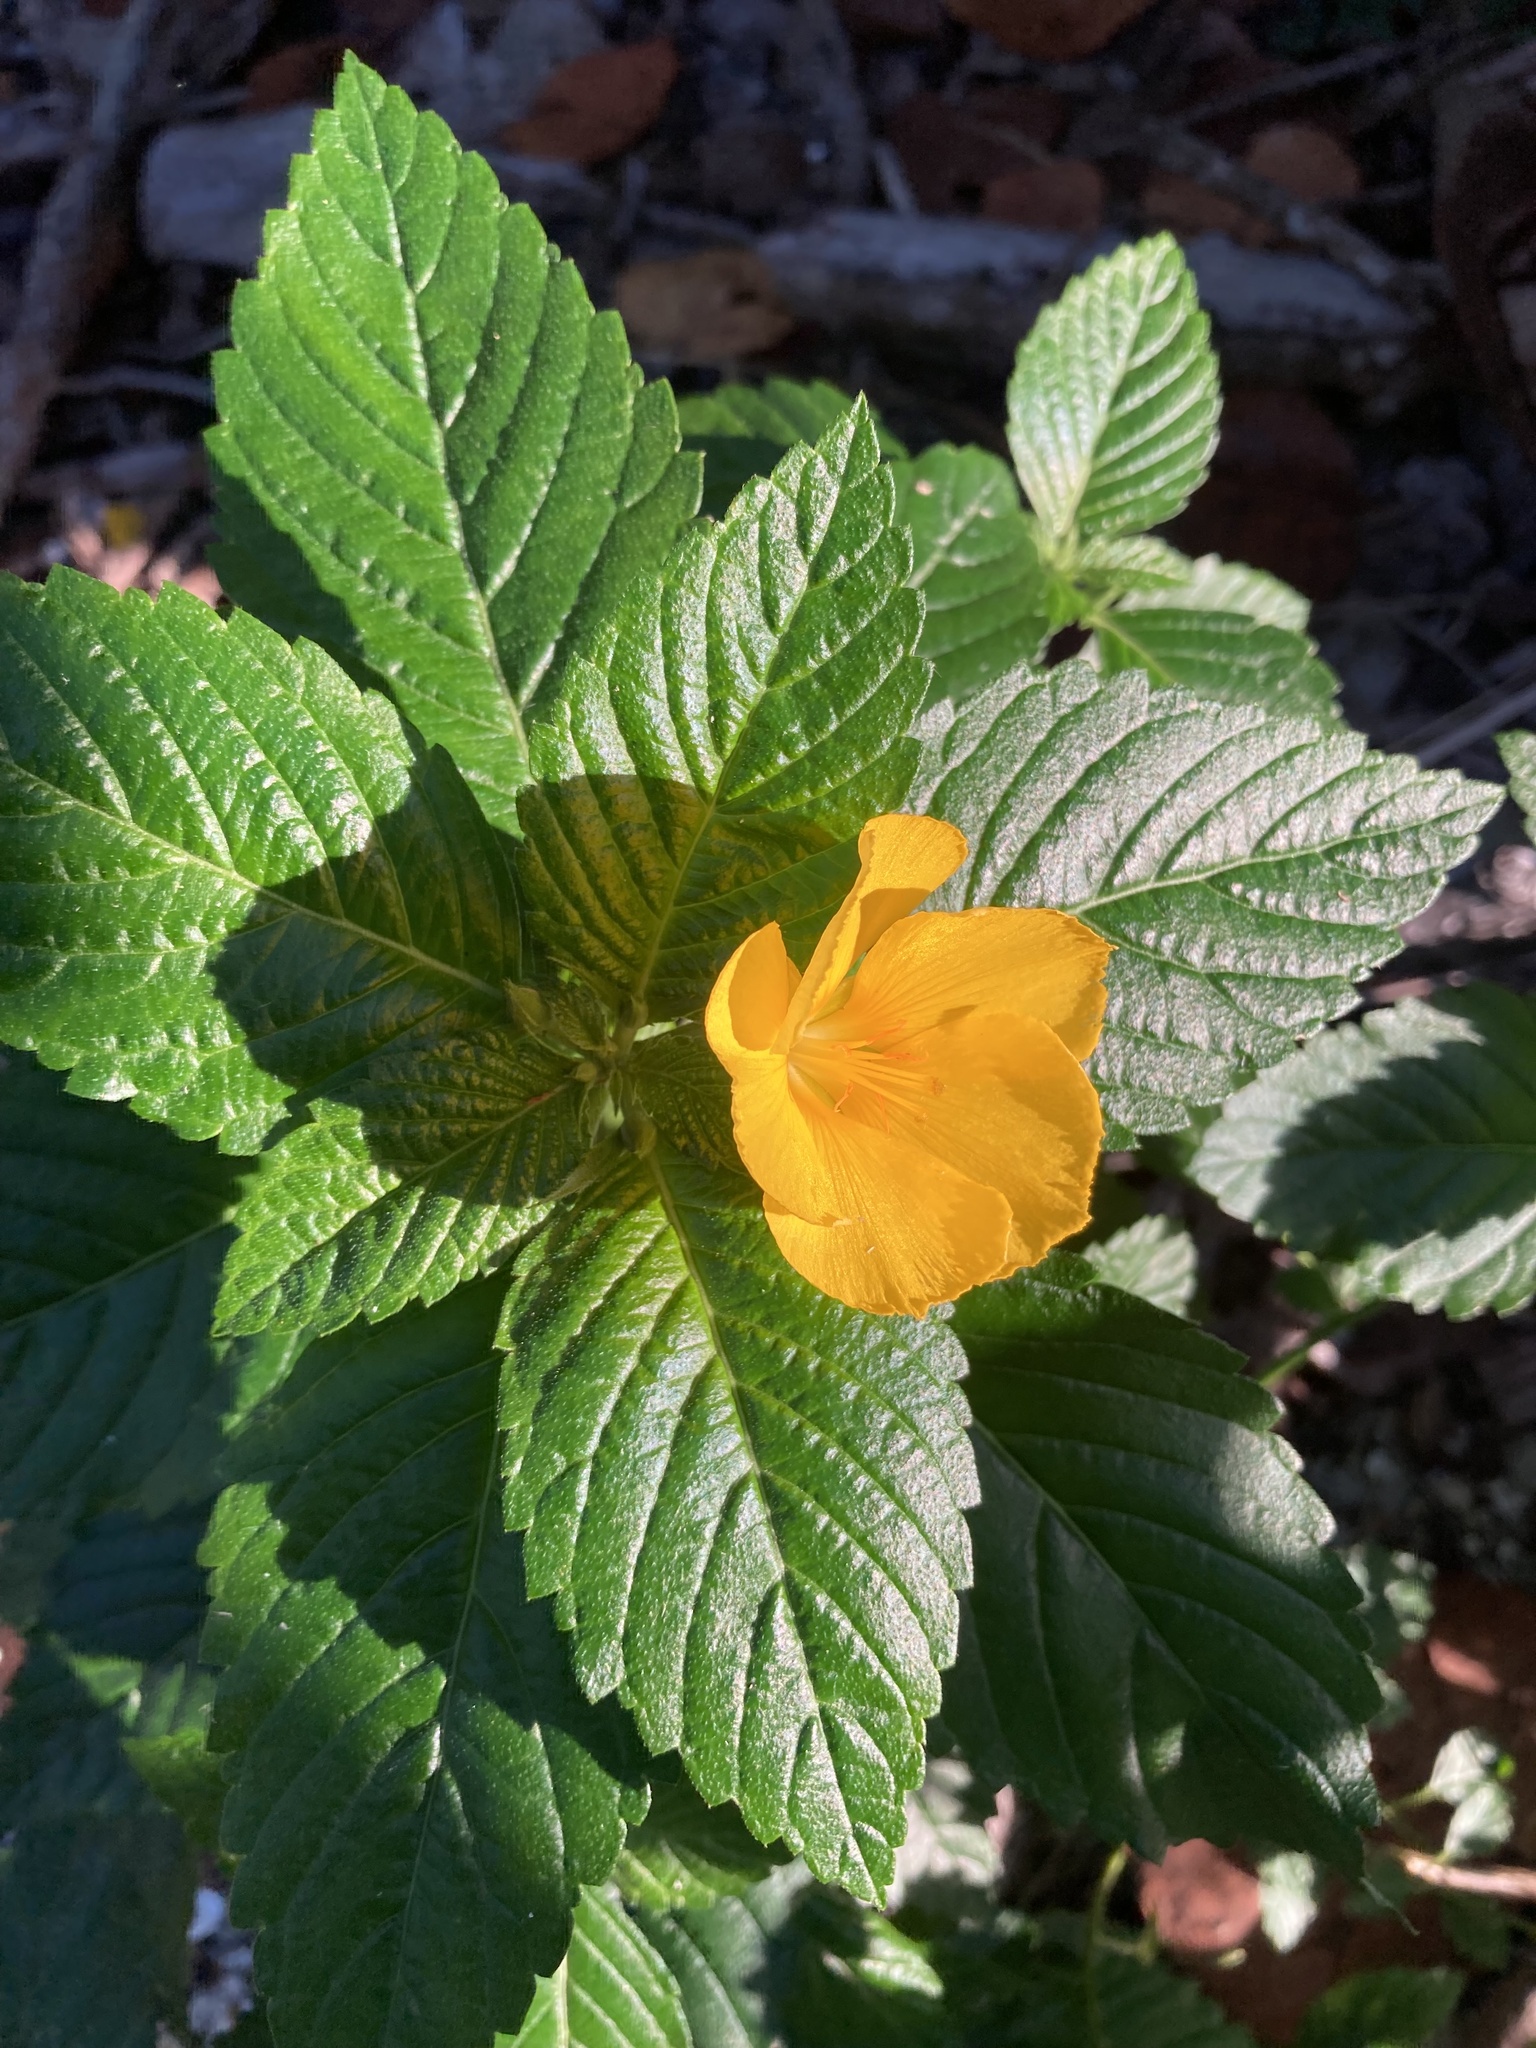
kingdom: Plantae
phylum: Tracheophyta
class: Magnoliopsida
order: Malpighiales
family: Turneraceae
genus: Turnera
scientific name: Turnera ulmifolia
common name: Ramgoat dashalong
